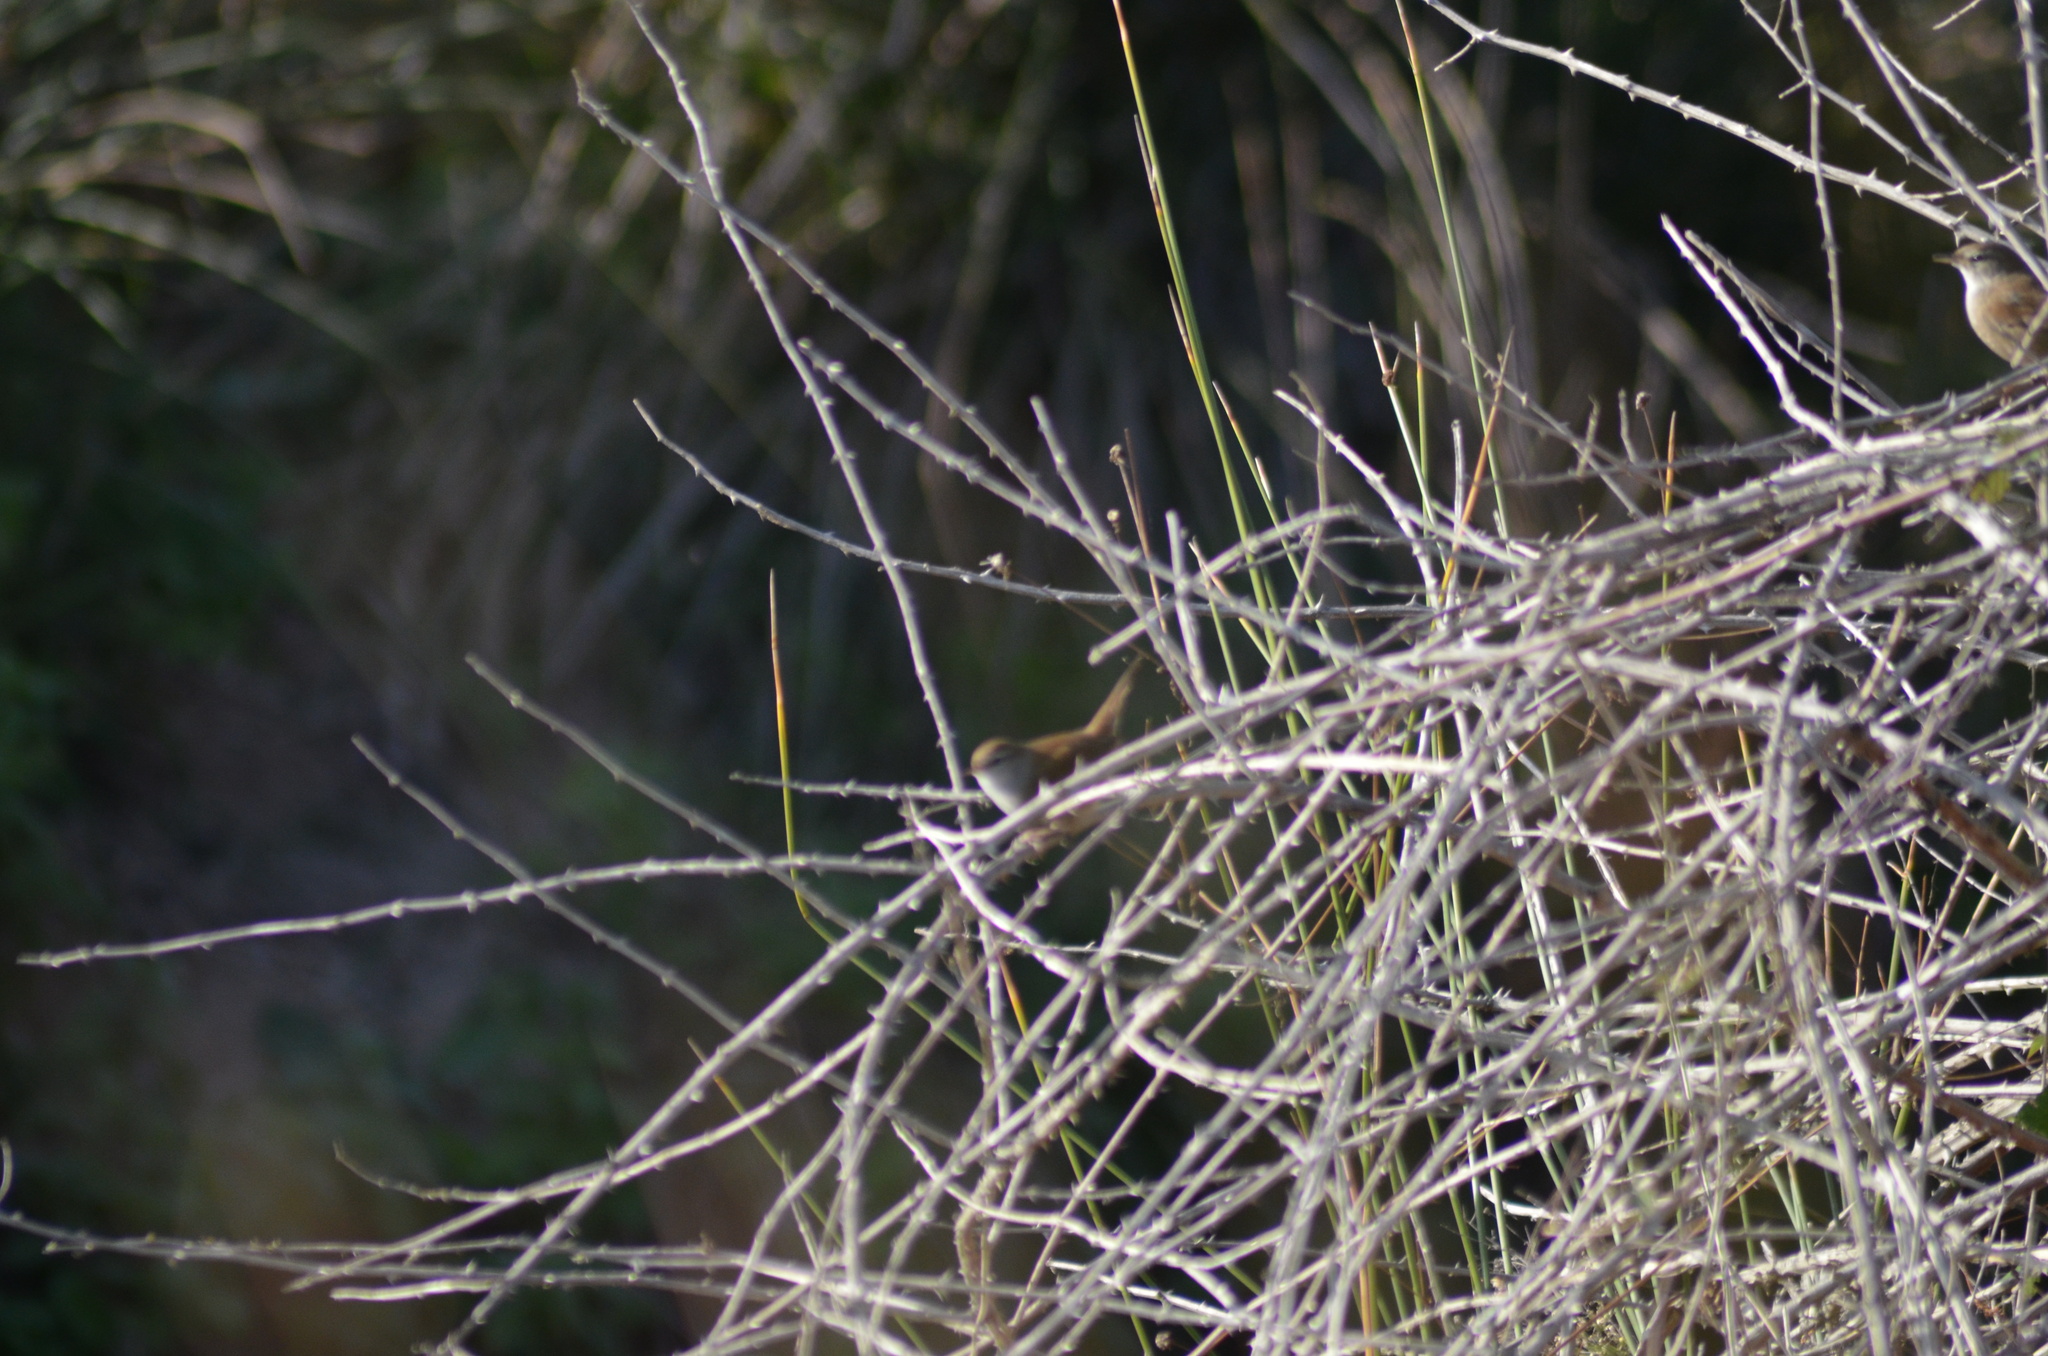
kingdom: Animalia
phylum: Chordata
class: Aves
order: Passeriformes
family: Cettiidae
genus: Cettia
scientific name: Cettia cetti
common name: Cetti's warbler
